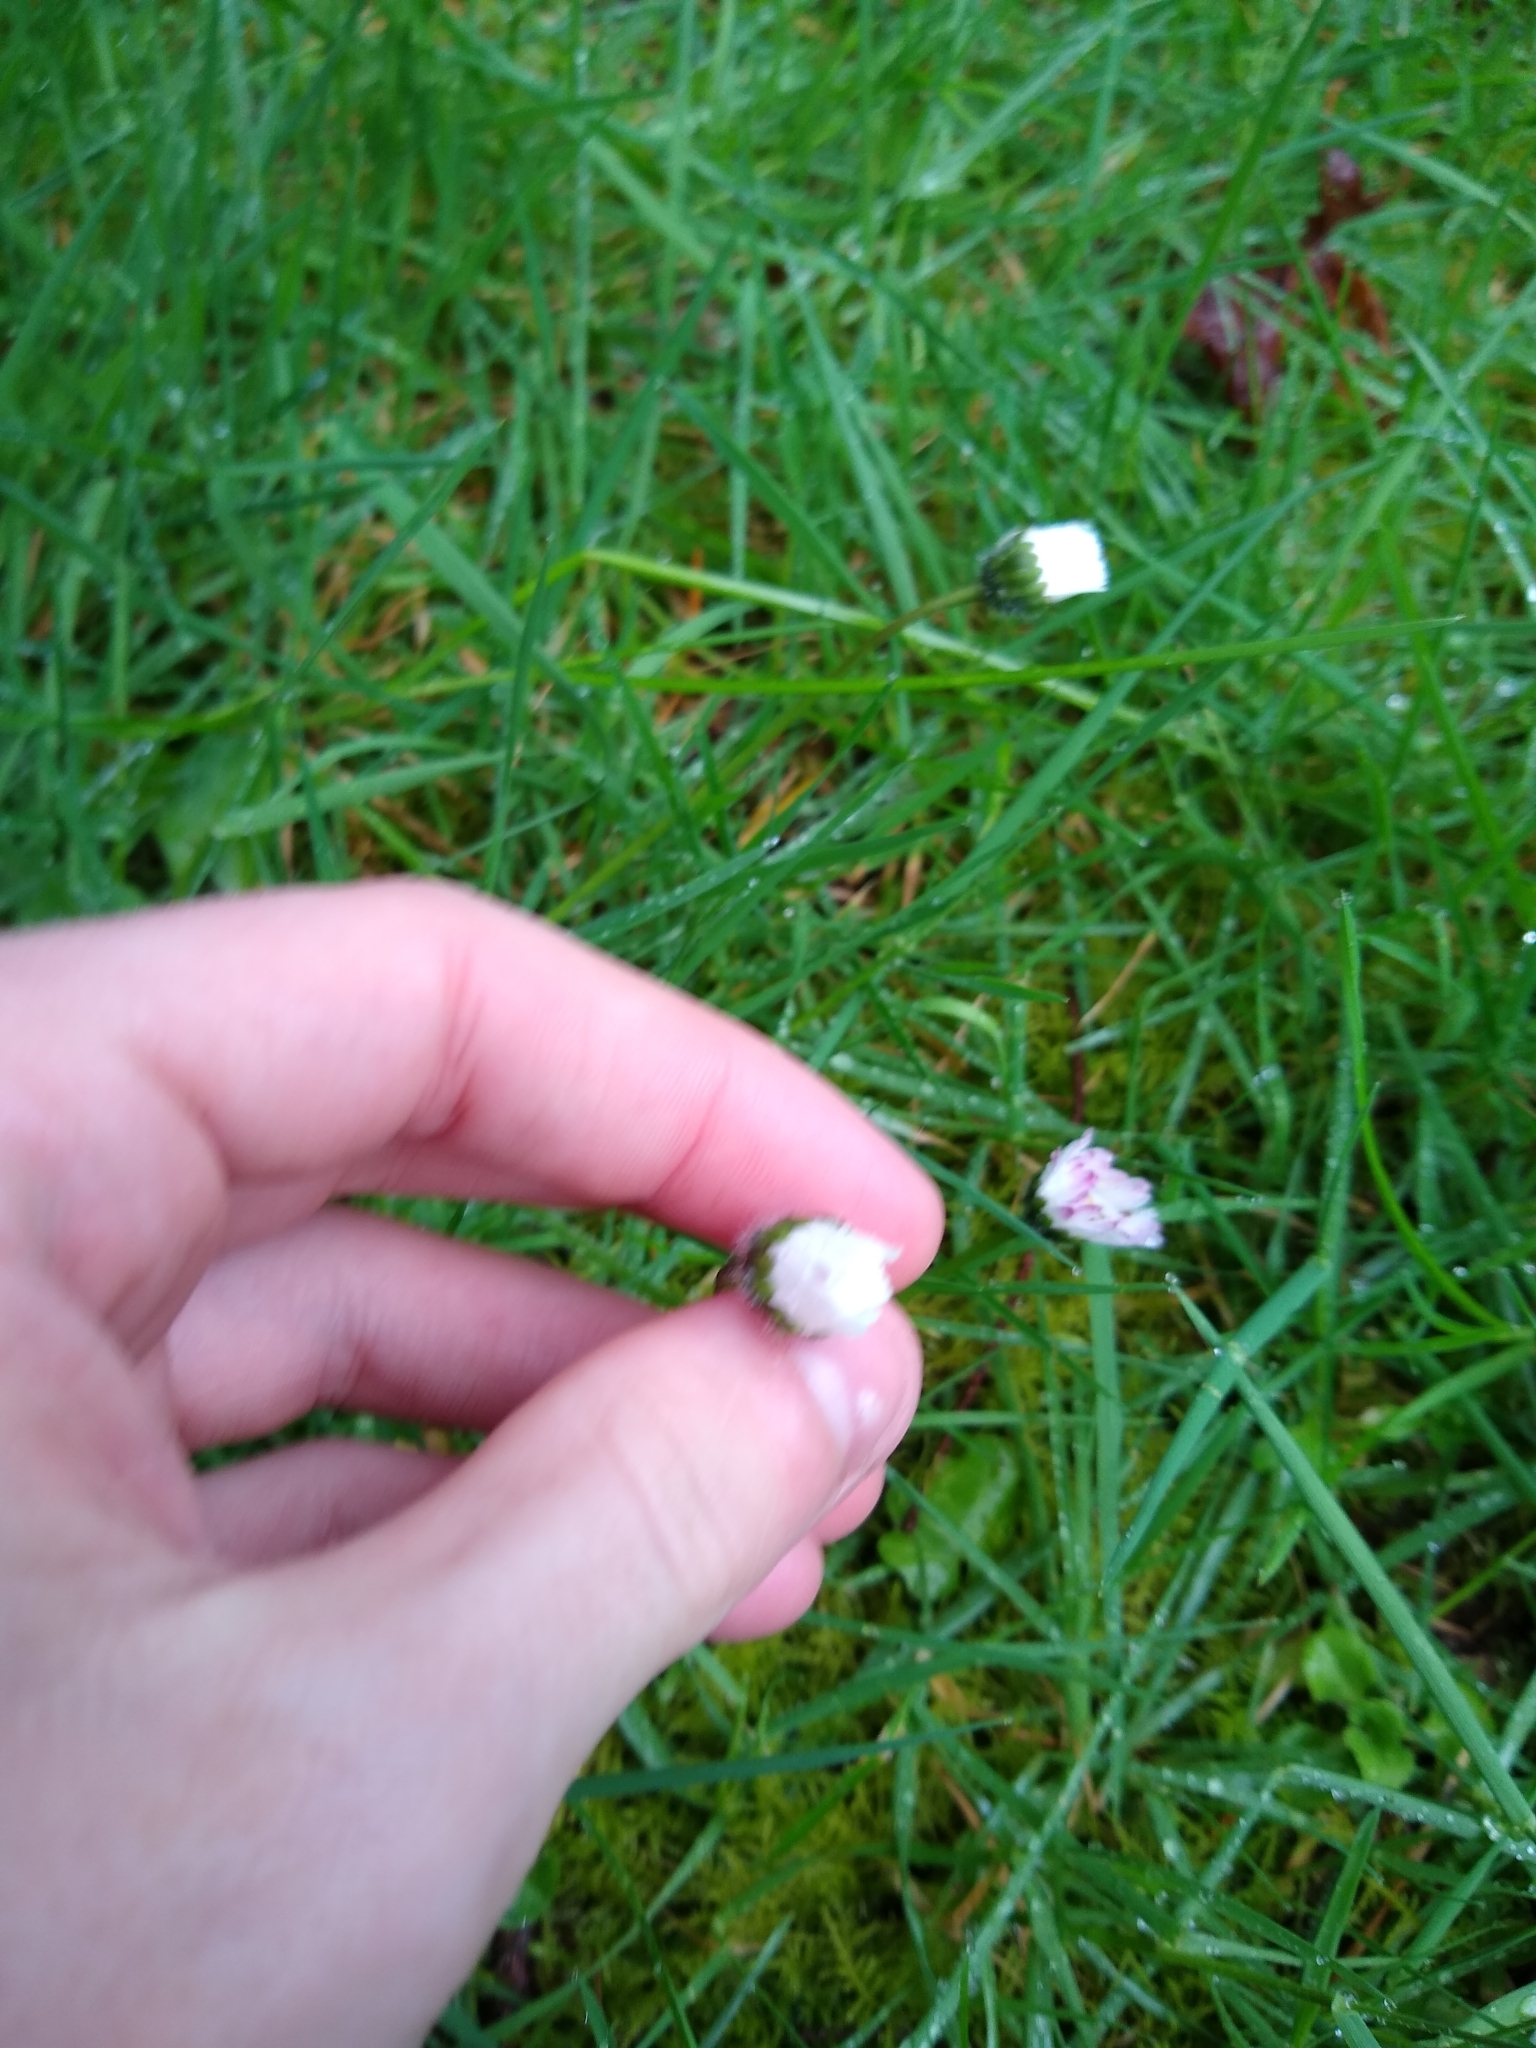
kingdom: Plantae
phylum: Tracheophyta
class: Magnoliopsida
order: Asterales
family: Asteraceae
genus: Bellis
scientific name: Bellis perennis
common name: Lawndaisy
